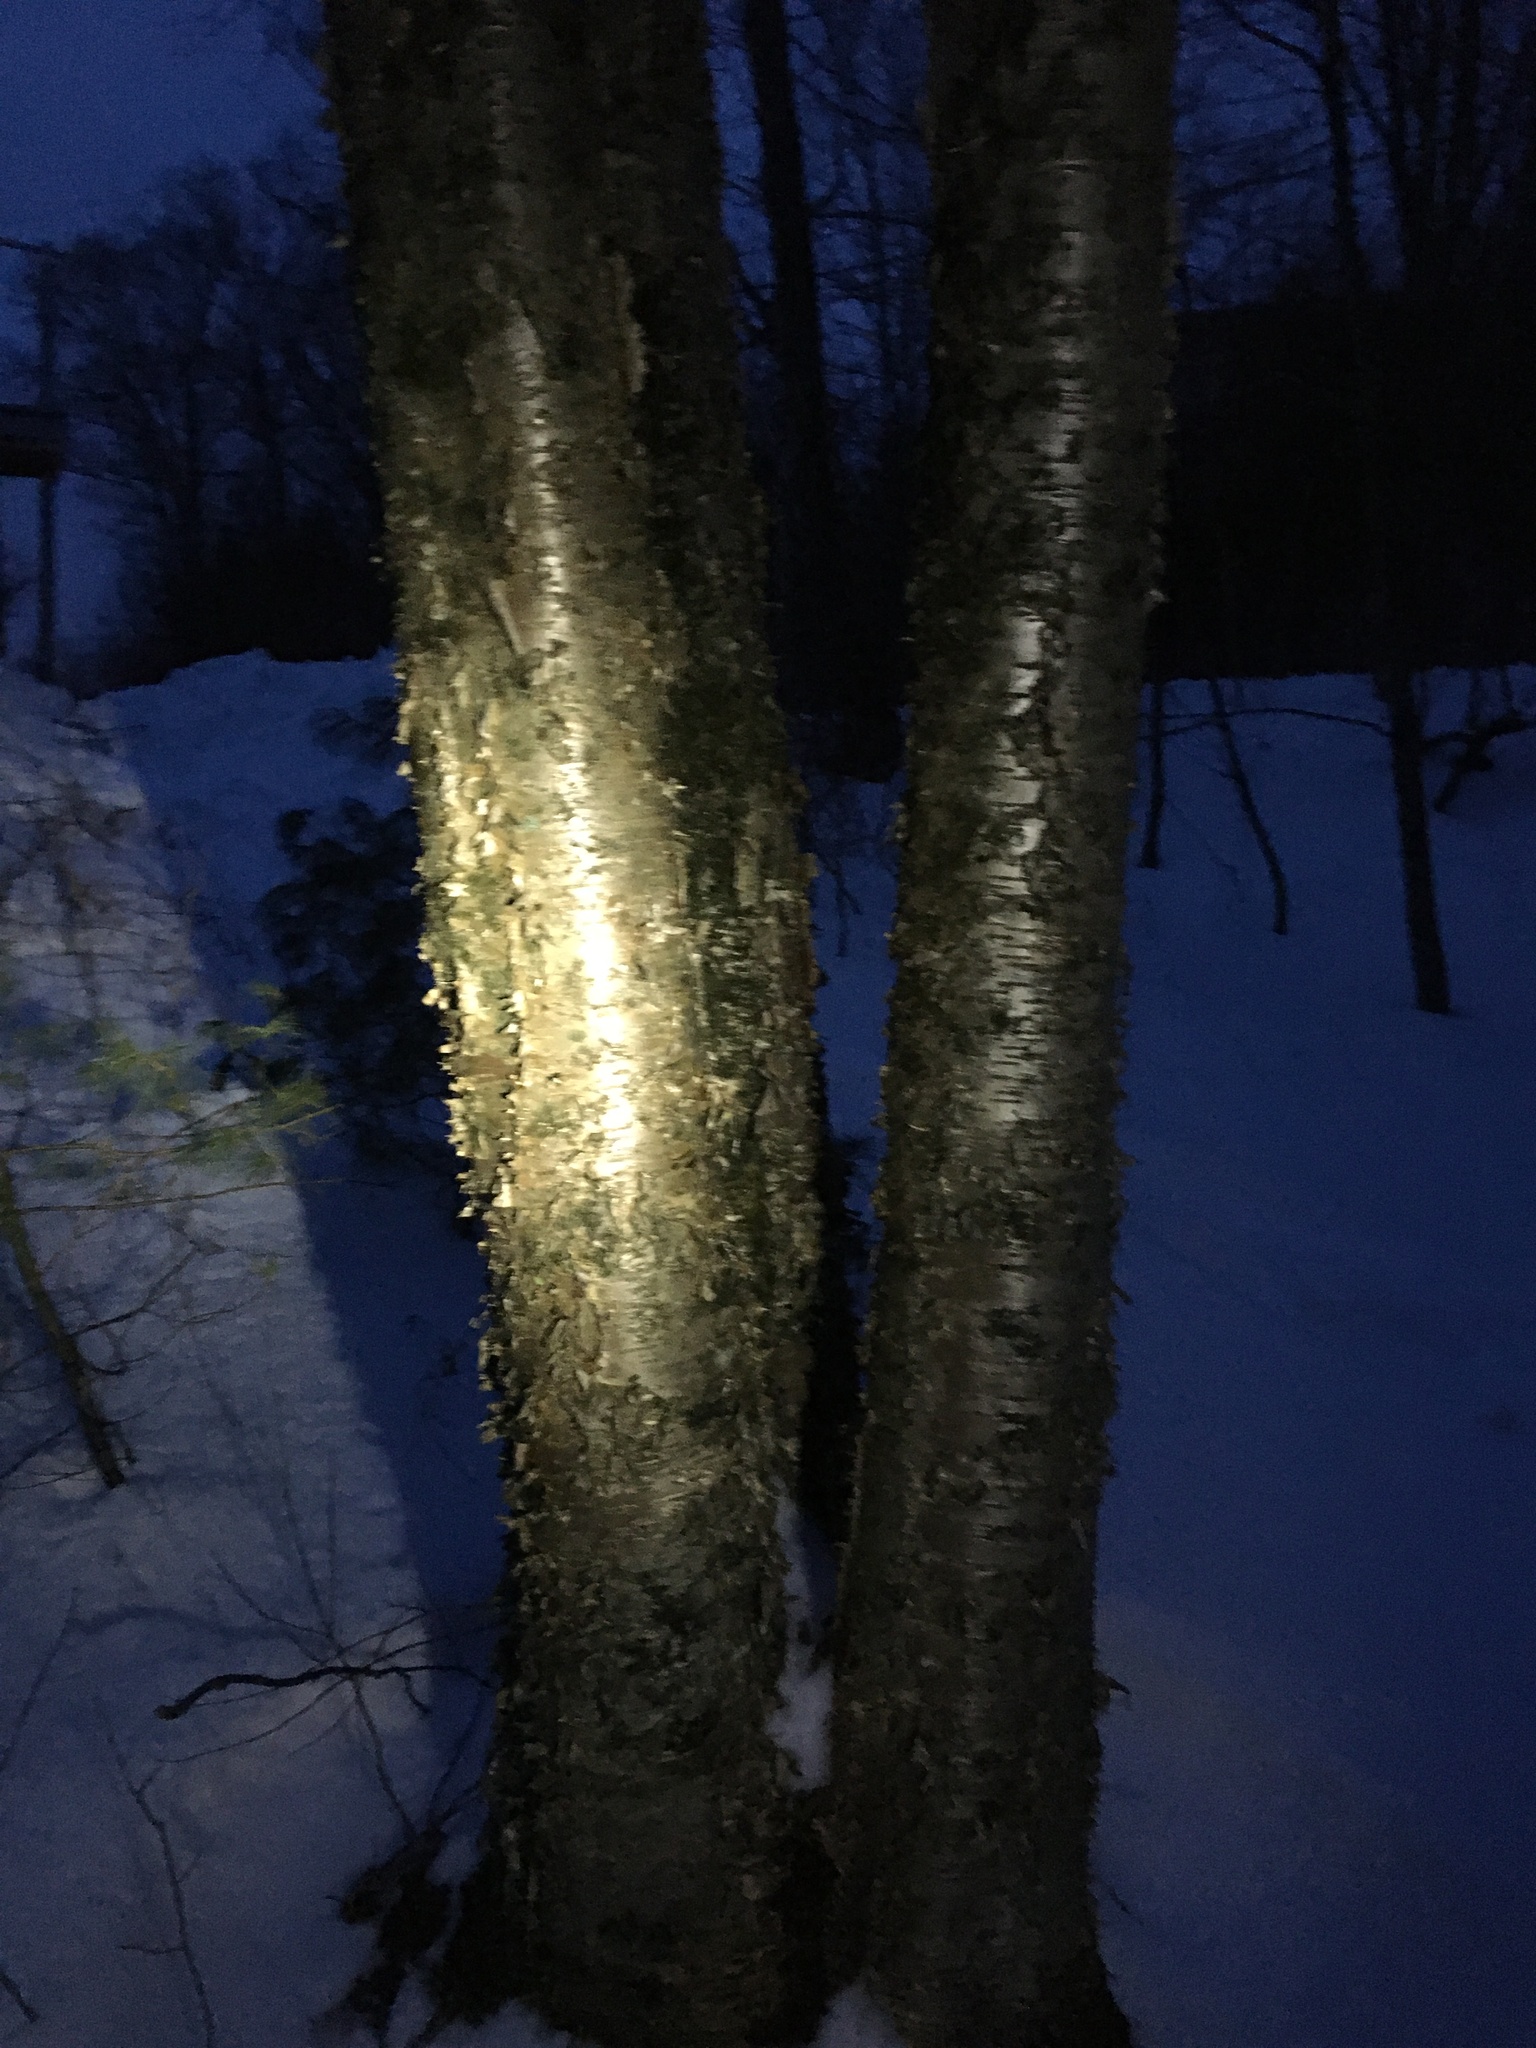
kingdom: Plantae
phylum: Tracheophyta
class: Magnoliopsida
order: Fagales
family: Betulaceae
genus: Betula
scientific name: Betula alleghaniensis
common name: Yellow birch
